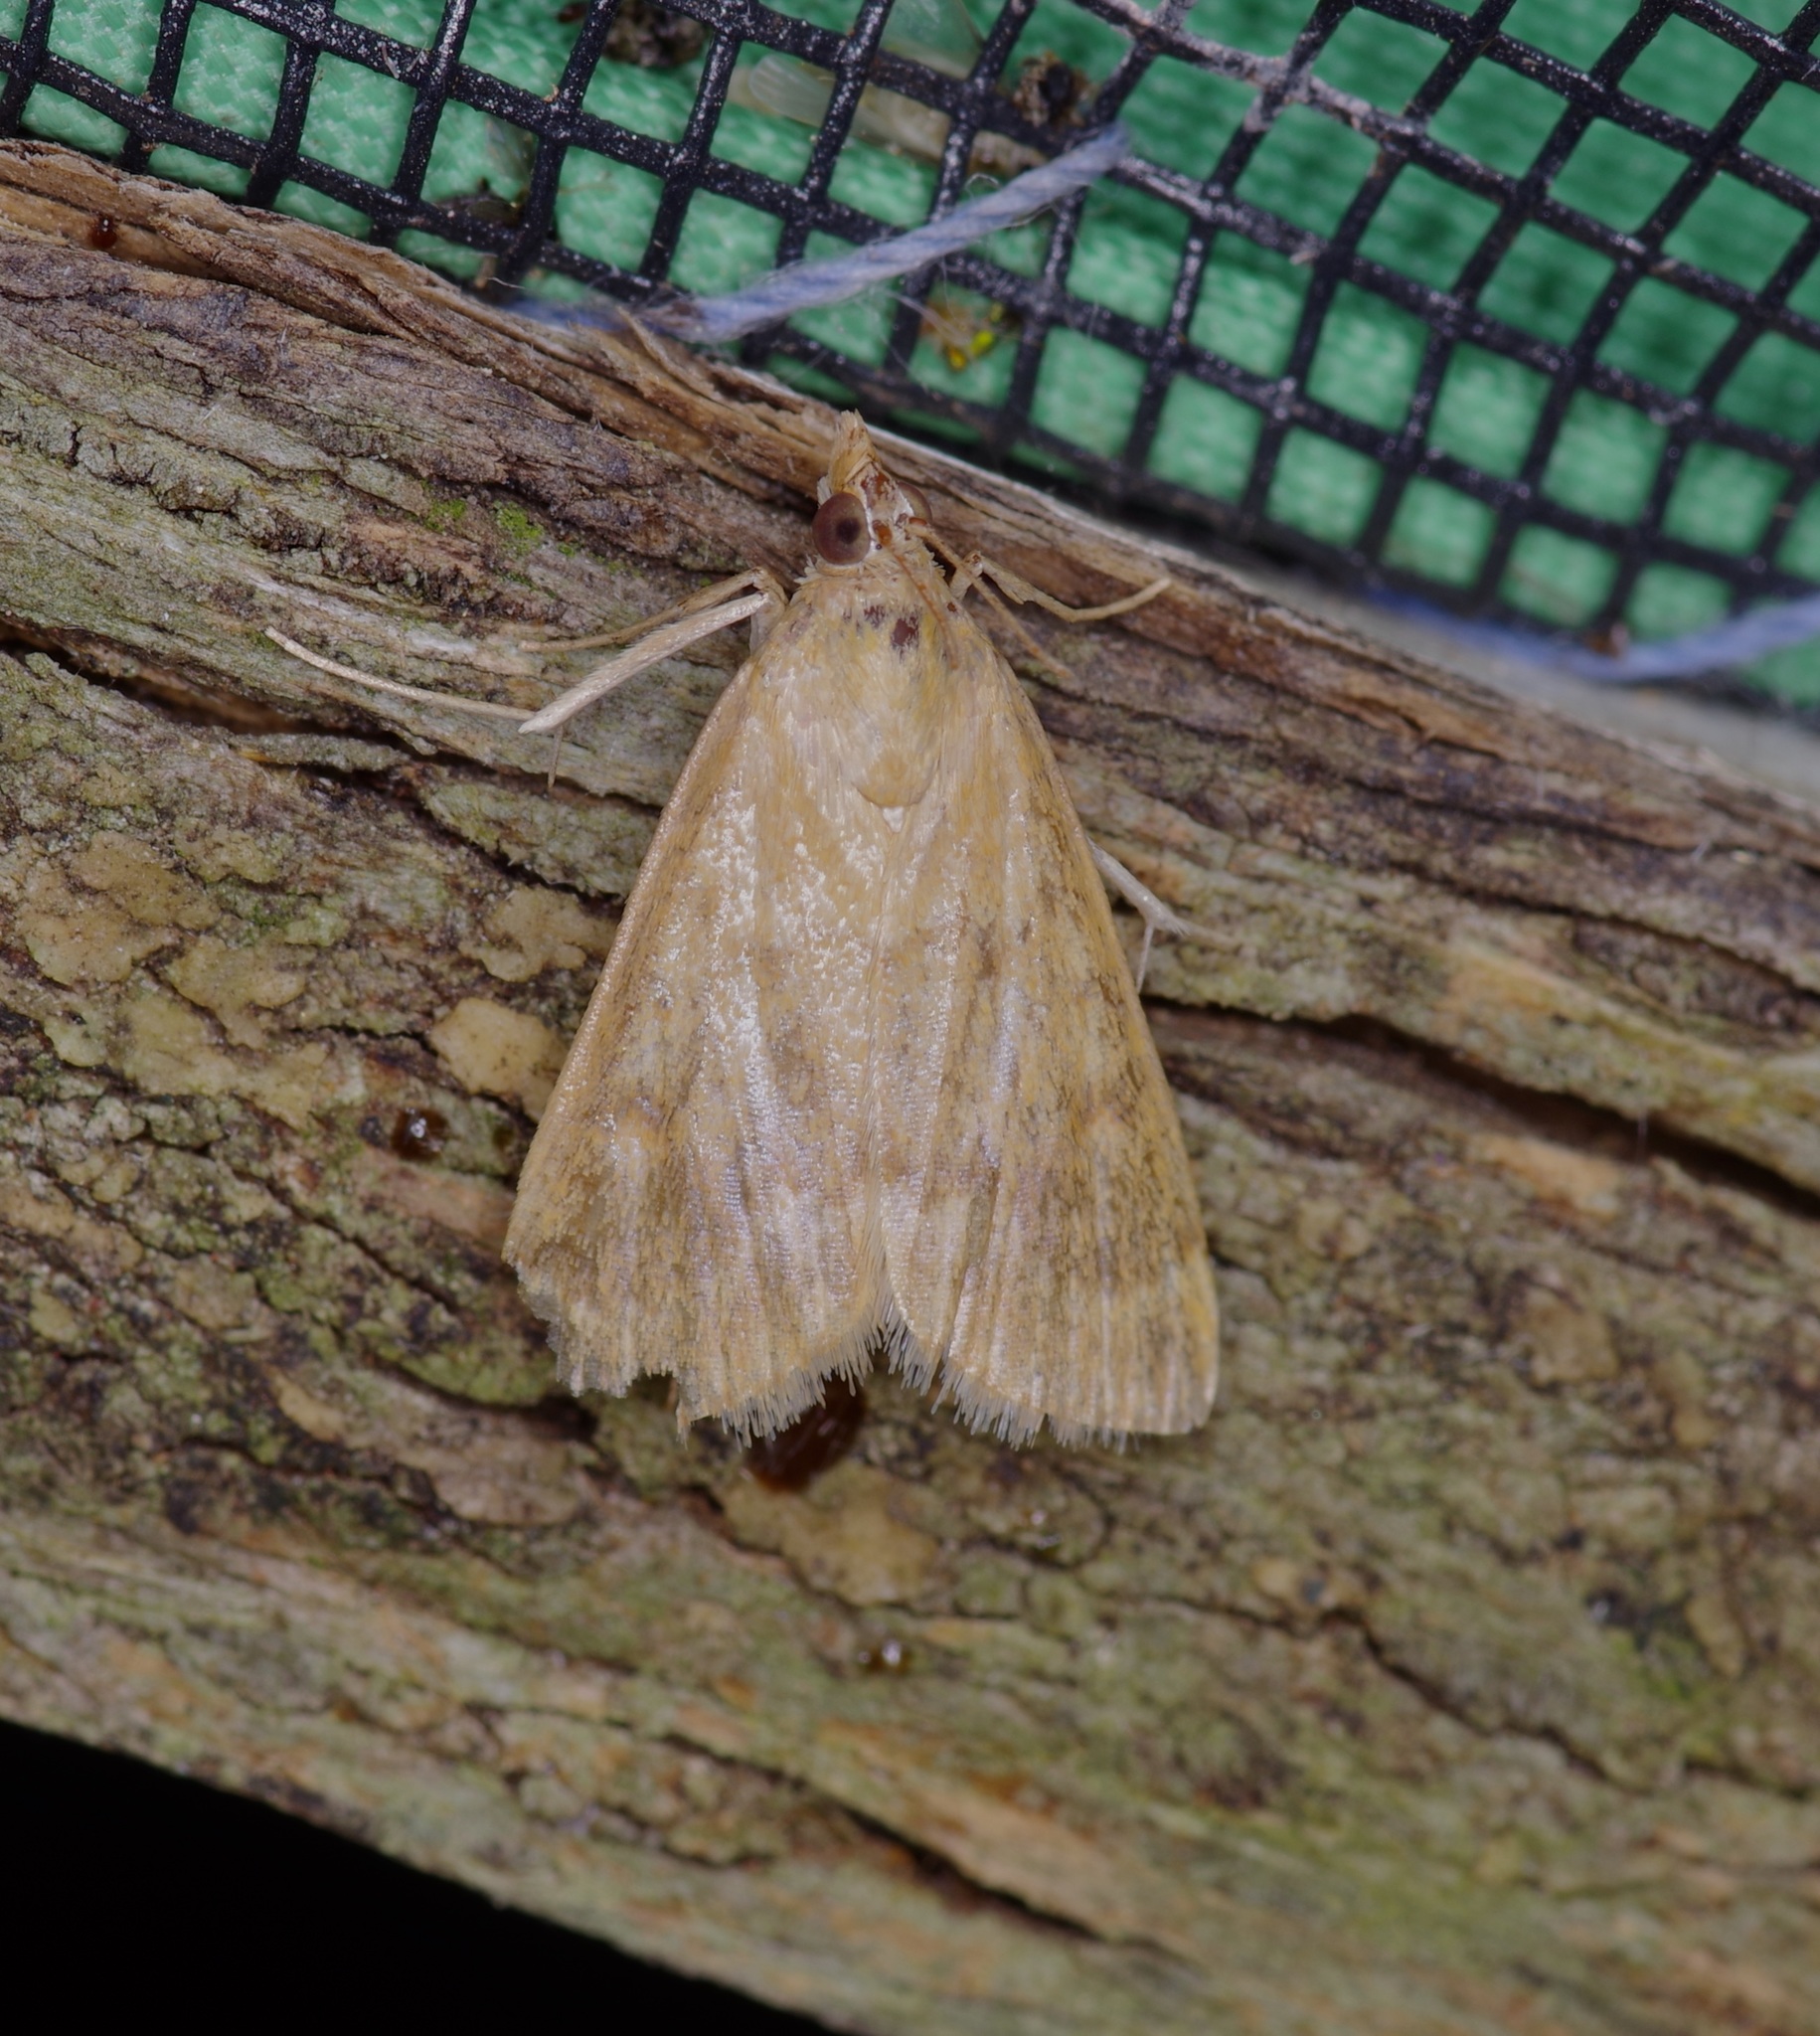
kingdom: Animalia
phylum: Arthropoda
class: Insecta
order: Lepidoptera
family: Crambidae
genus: Achyra
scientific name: Achyra rantalis
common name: Garden webworm
